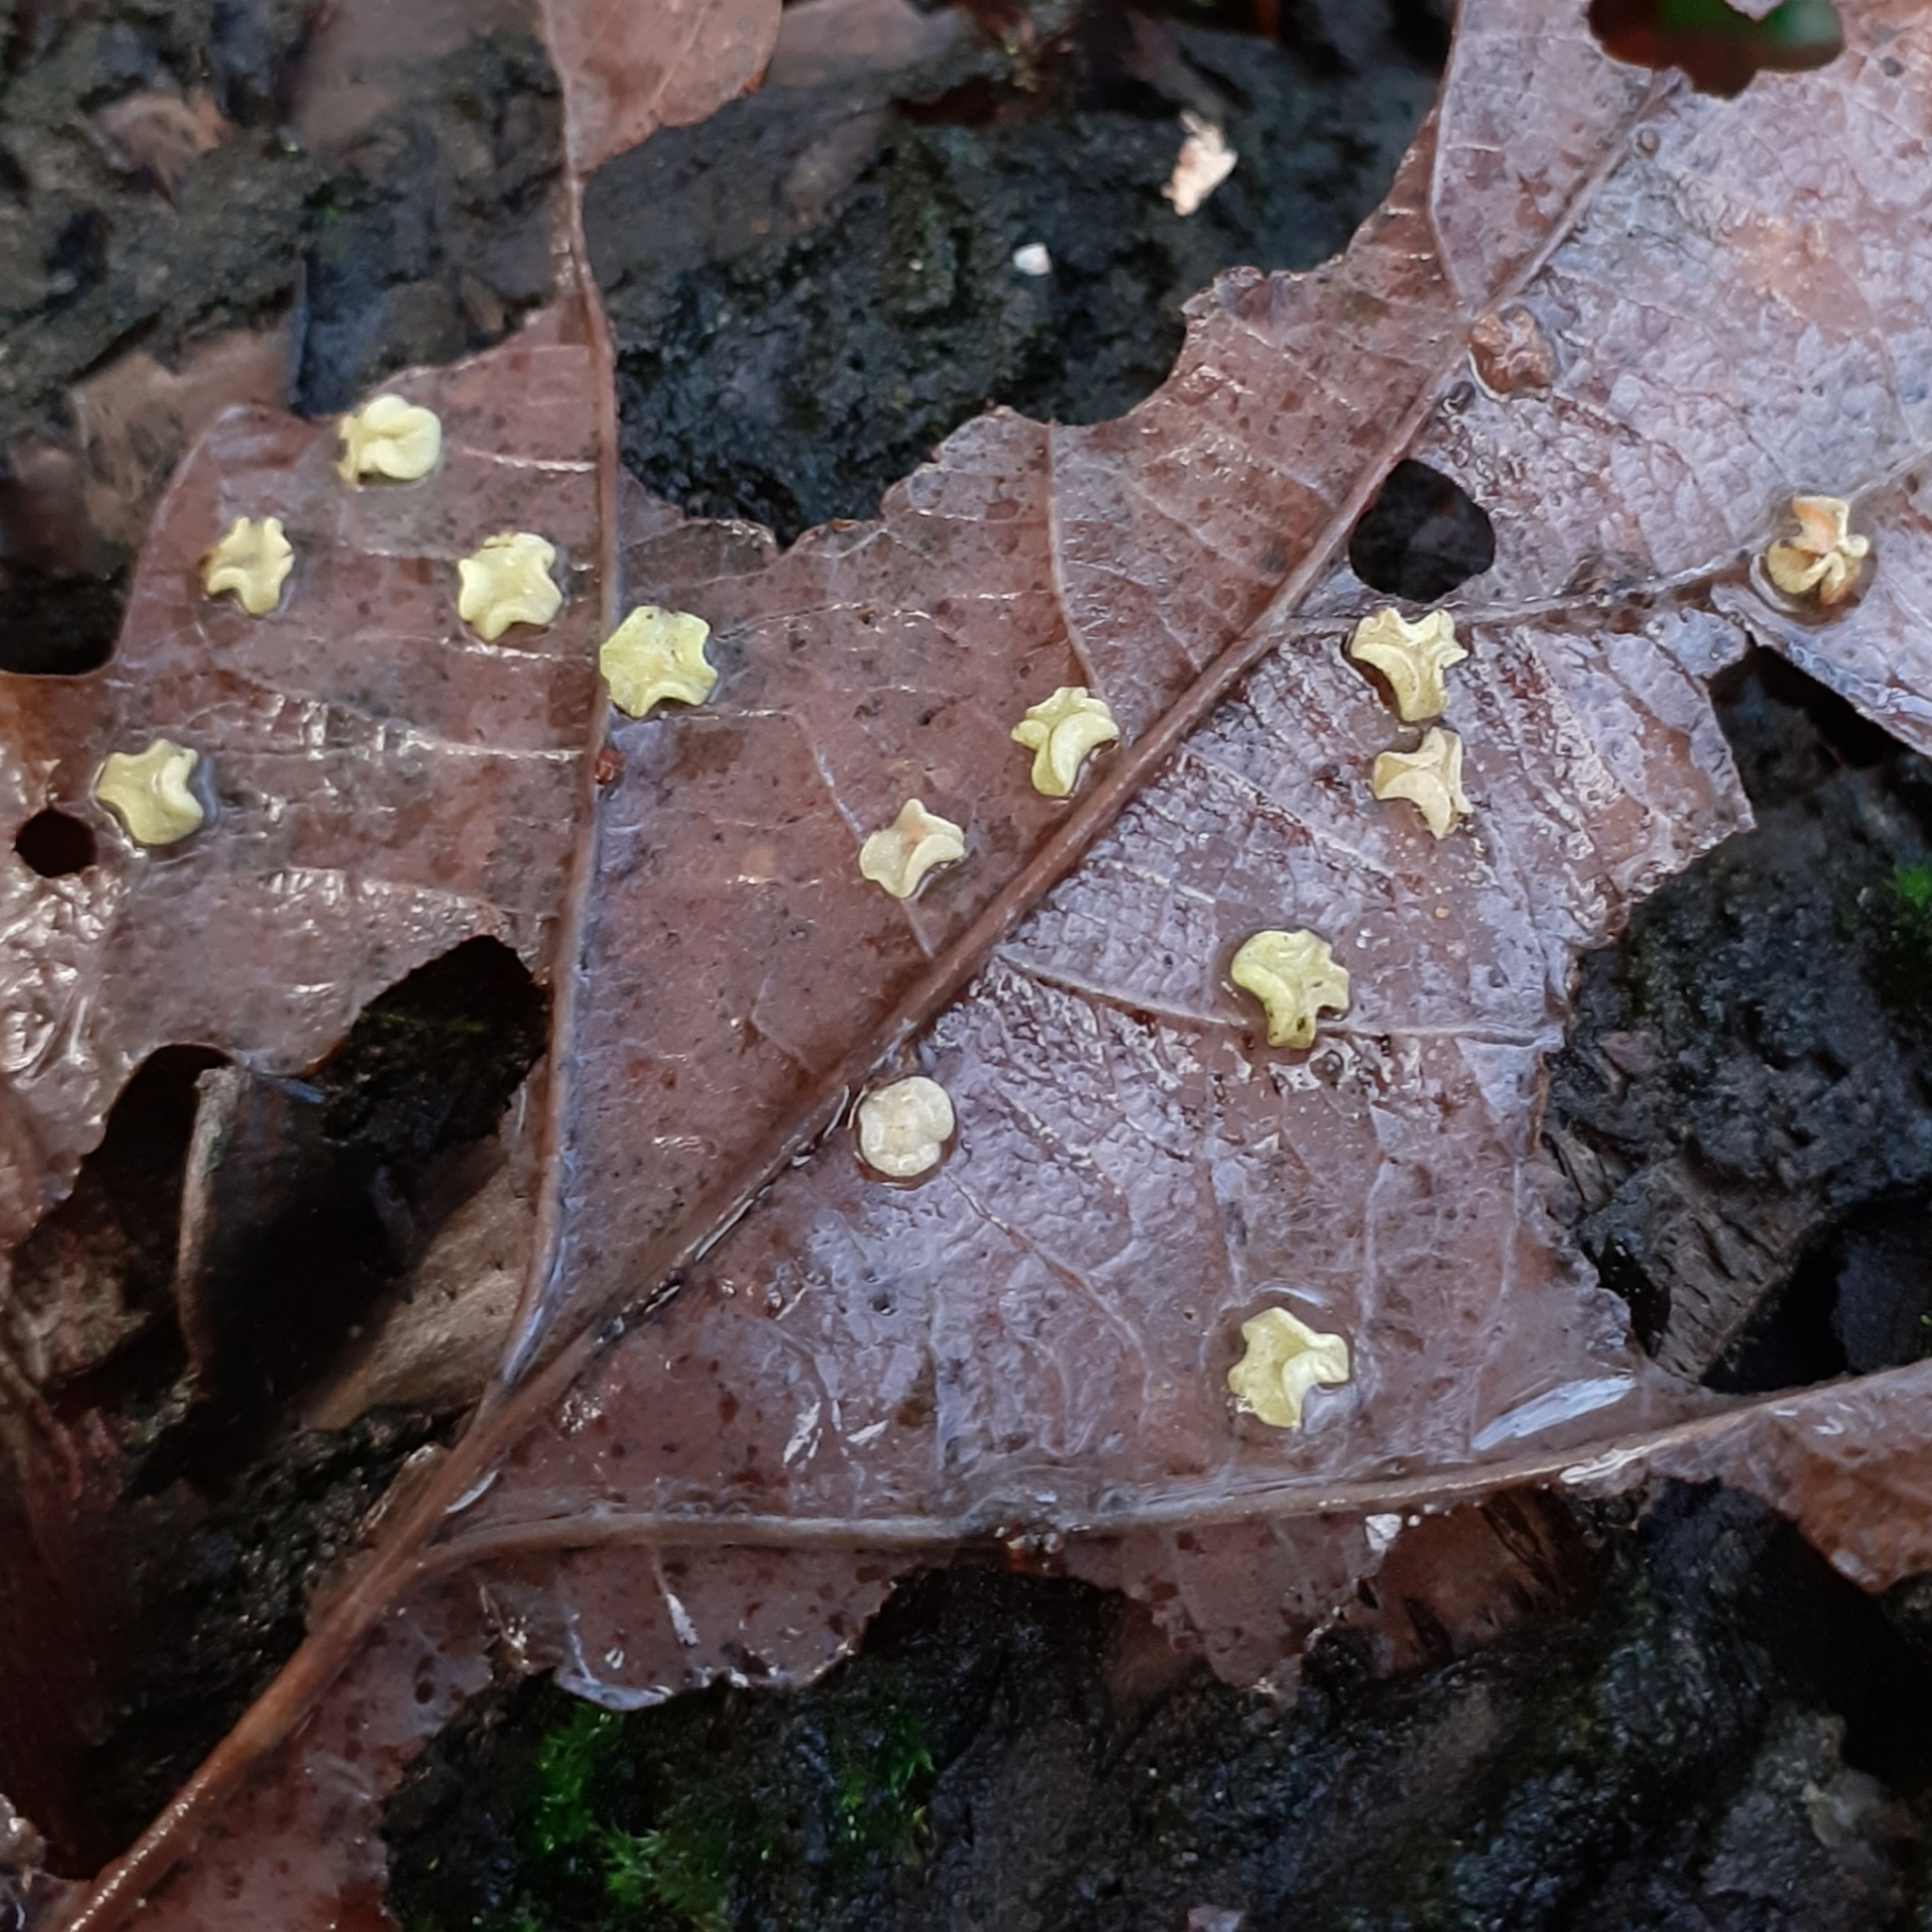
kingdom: Animalia
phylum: Arthropoda
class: Insecta
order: Hymenoptera
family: Cynipidae
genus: Neuroterus
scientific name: Neuroterus albipes
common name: Smooth spangle gall
